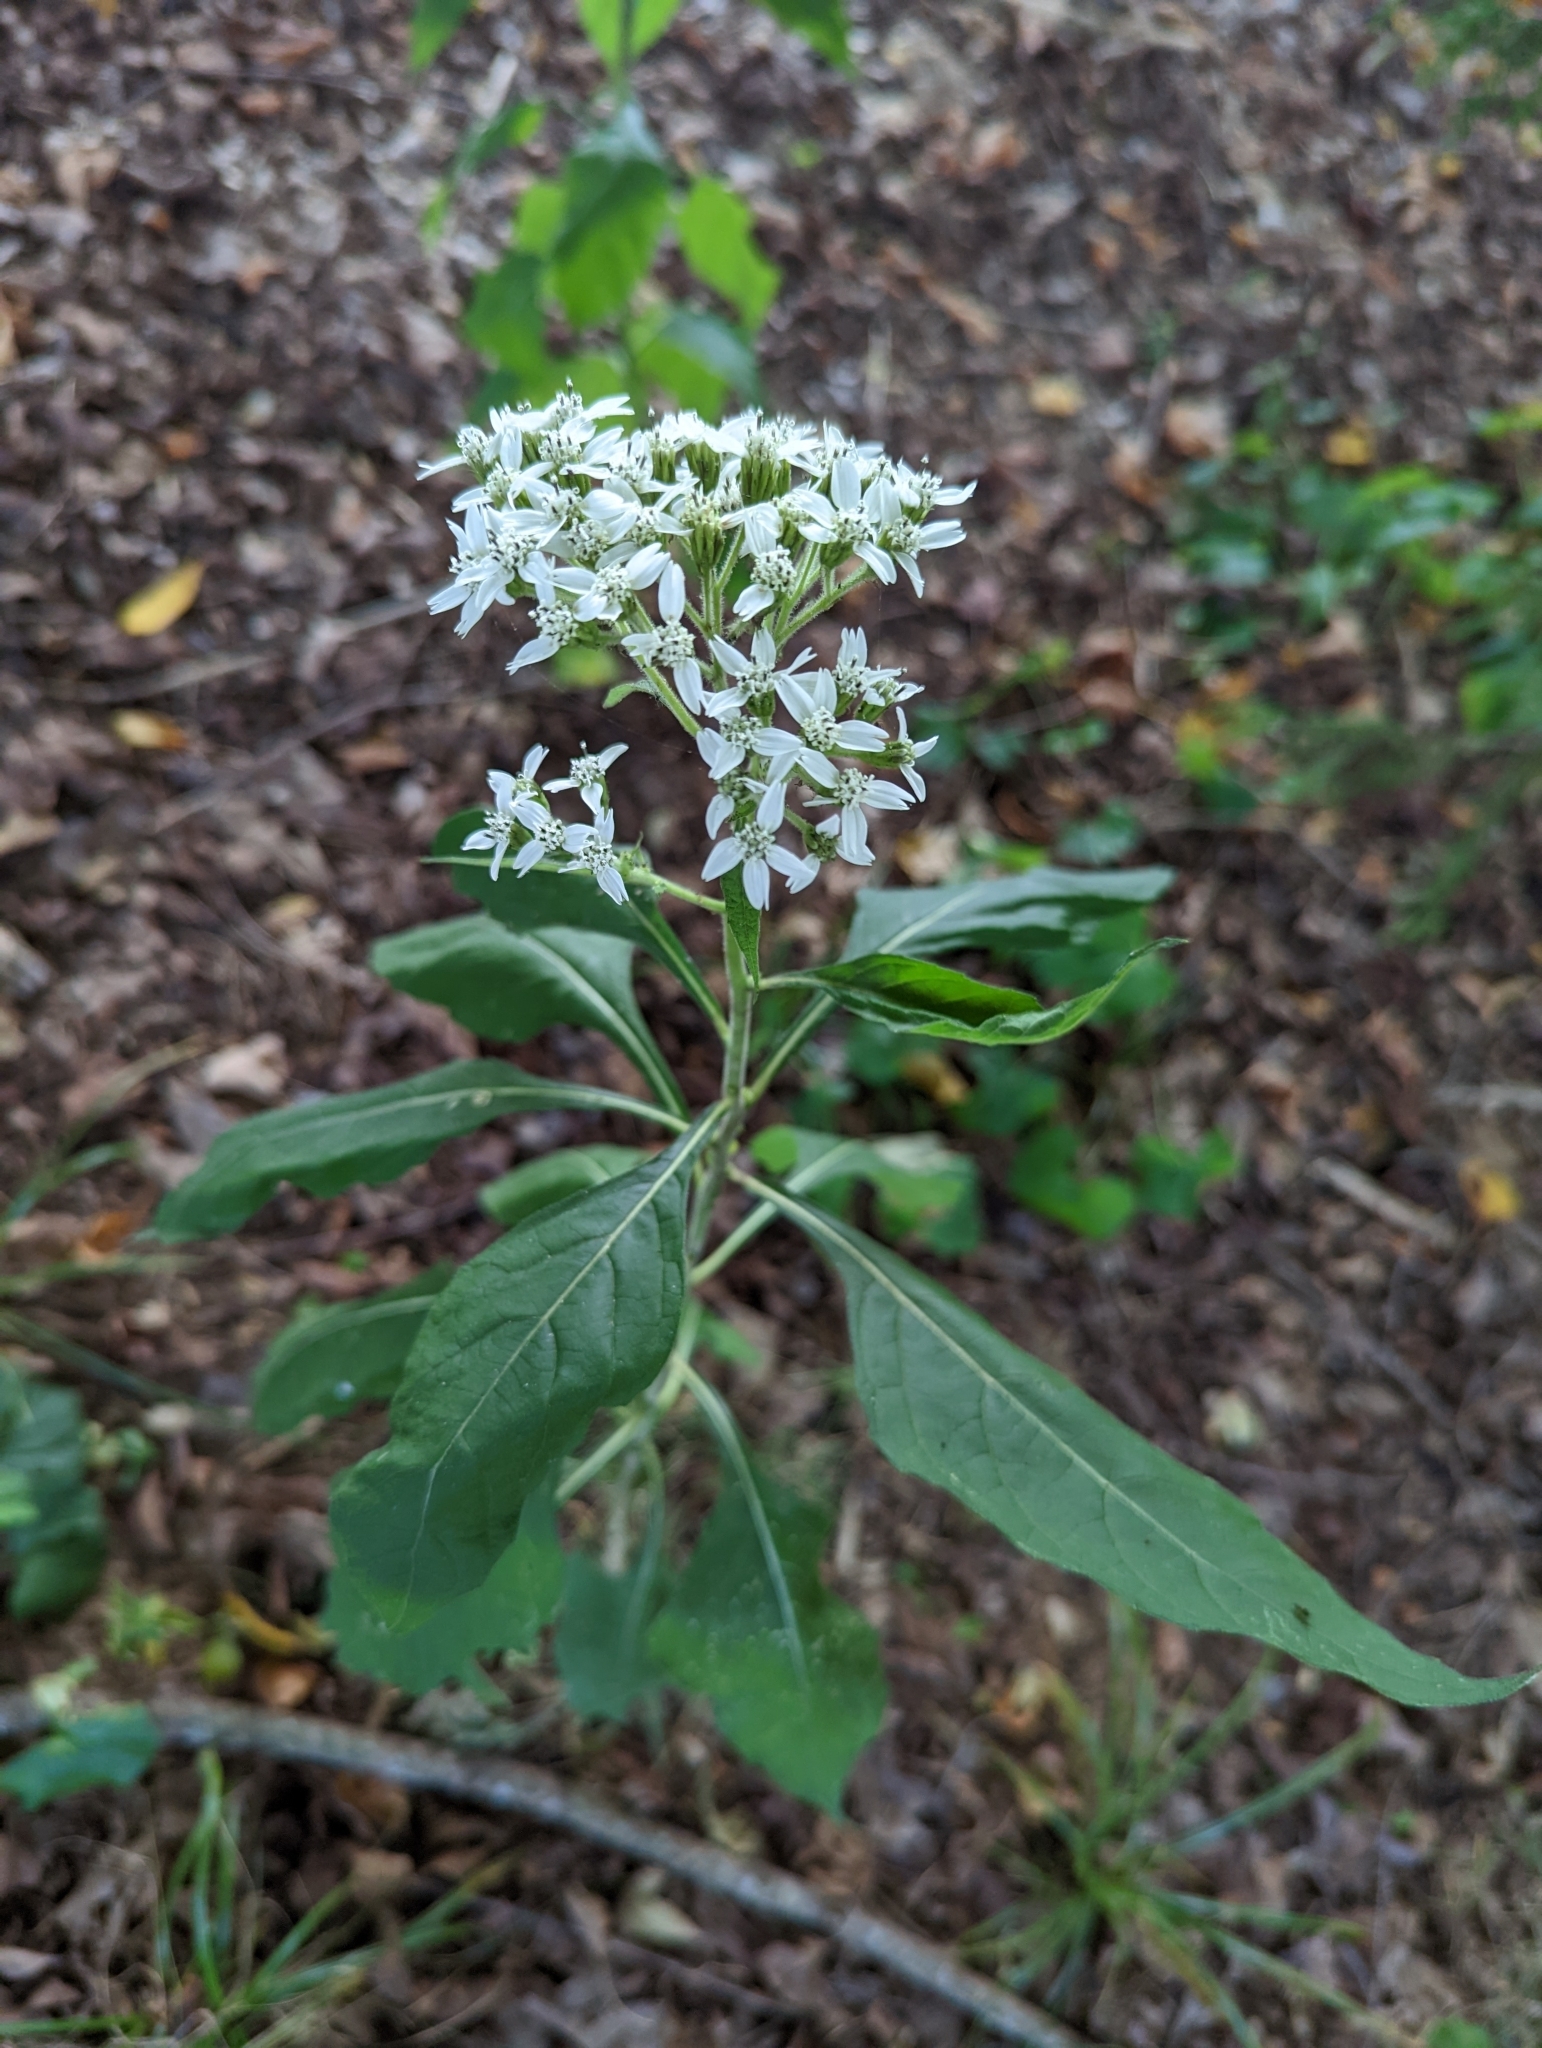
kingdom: Plantae
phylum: Tracheophyta
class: Magnoliopsida
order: Asterales
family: Asteraceae
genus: Verbesina
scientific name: Verbesina virginica
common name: Frostweed
